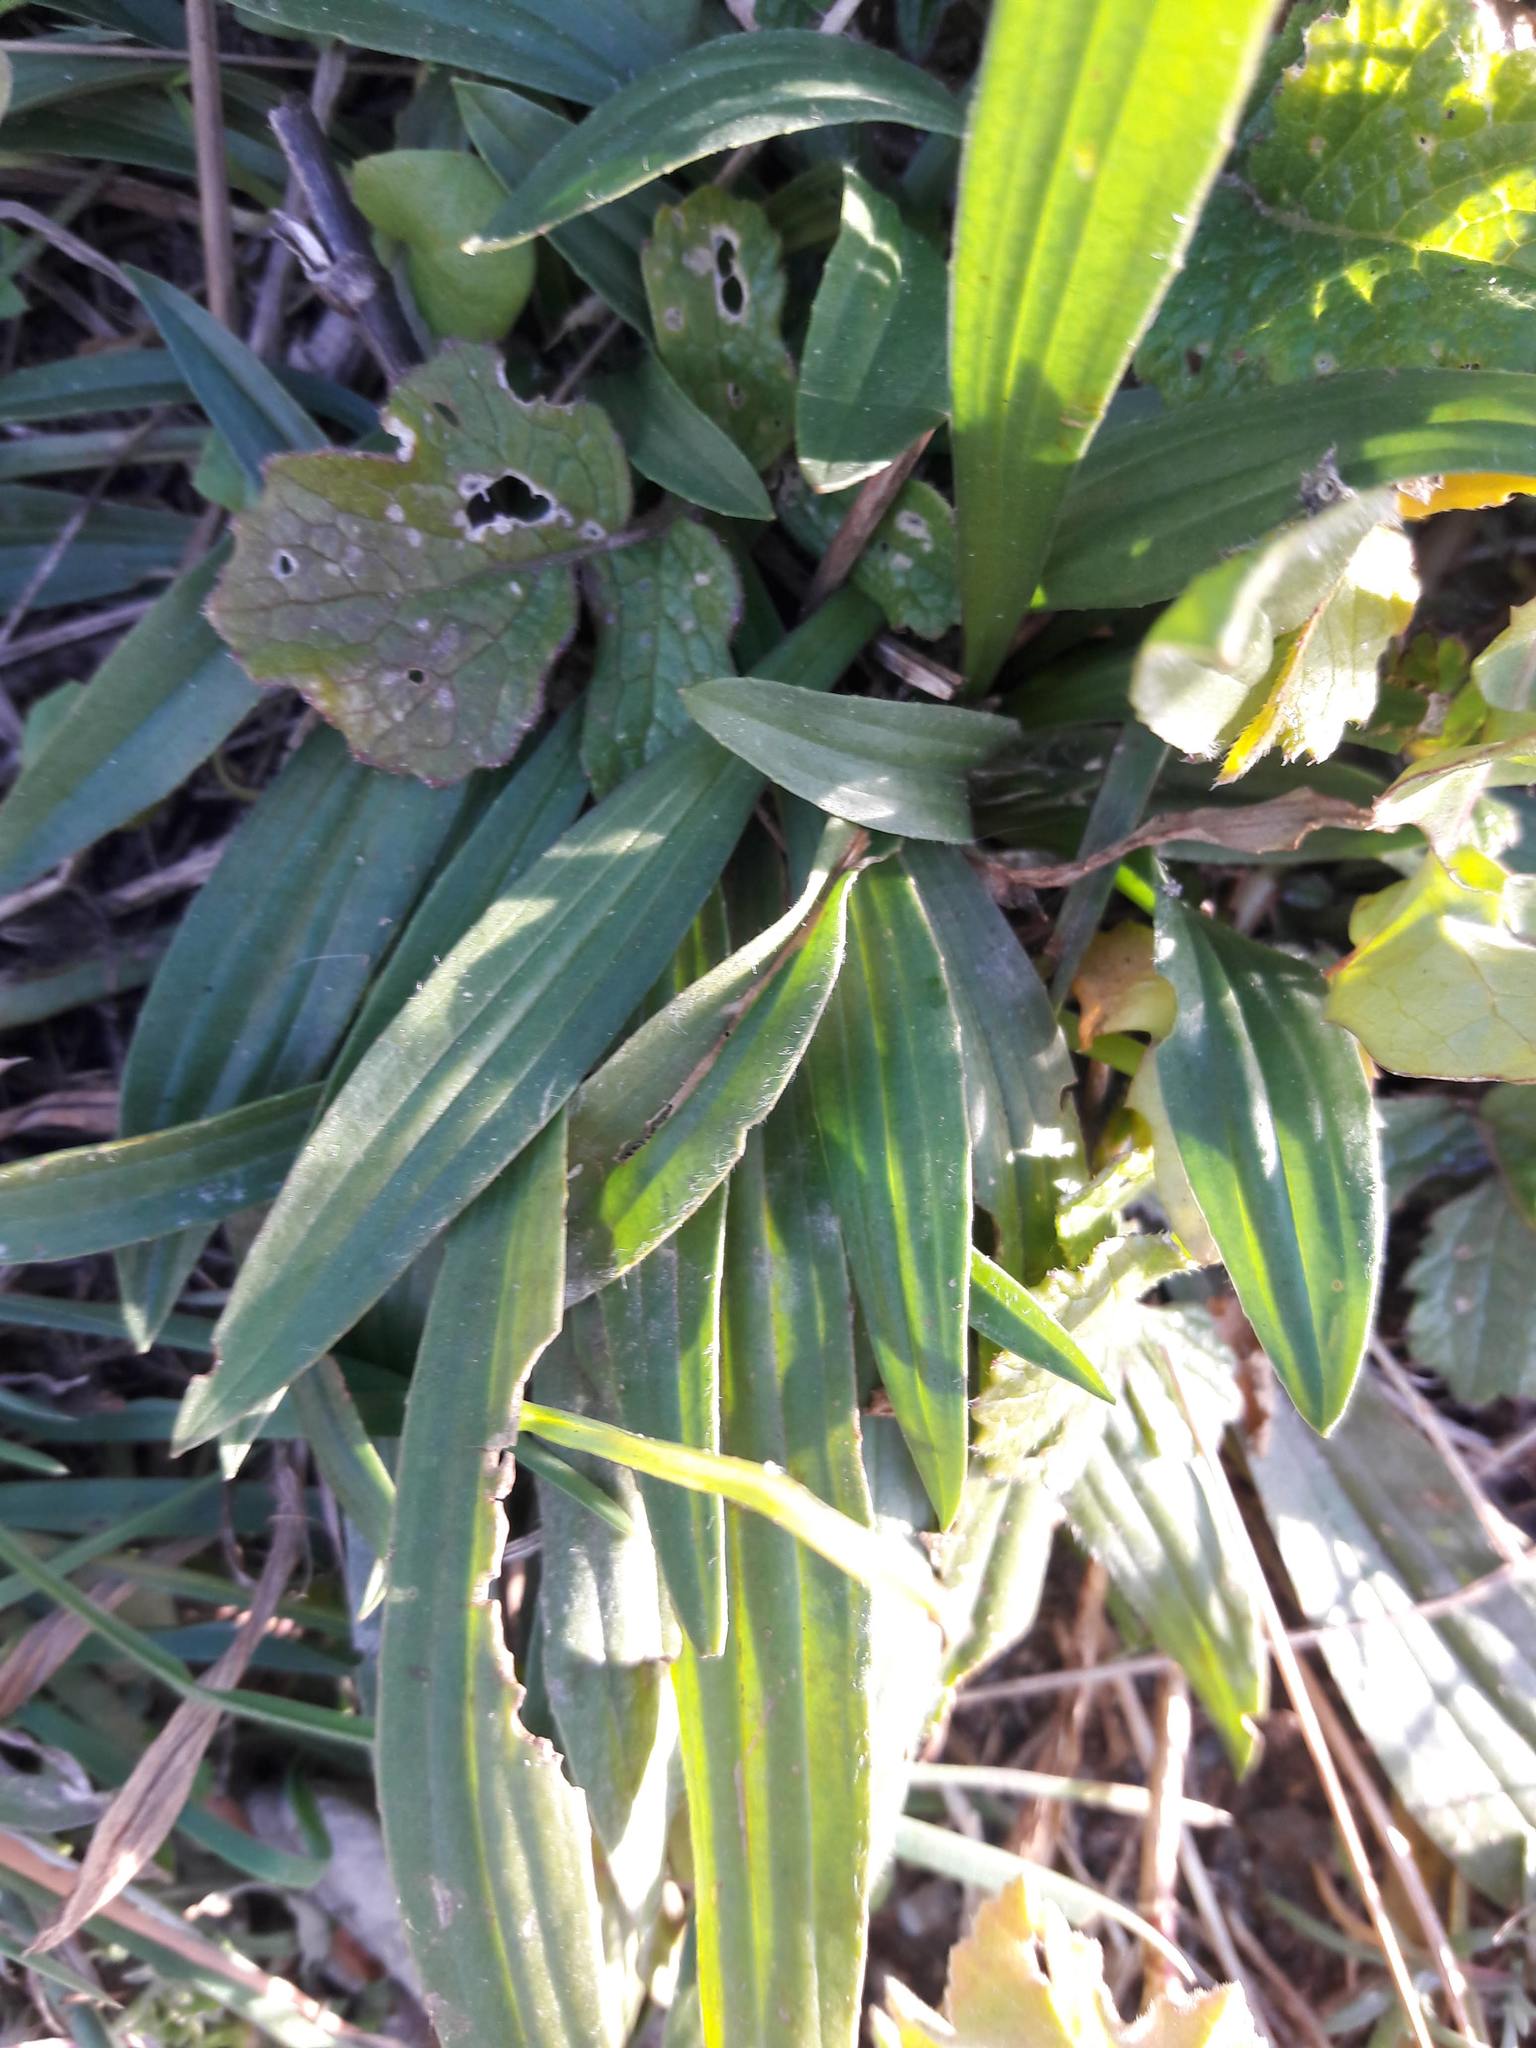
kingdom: Plantae
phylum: Tracheophyta
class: Magnoliopsida
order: Lamiales
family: Plantaginaceae
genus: Plantago
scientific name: Plantago lanceolata
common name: Ribwort plantain
